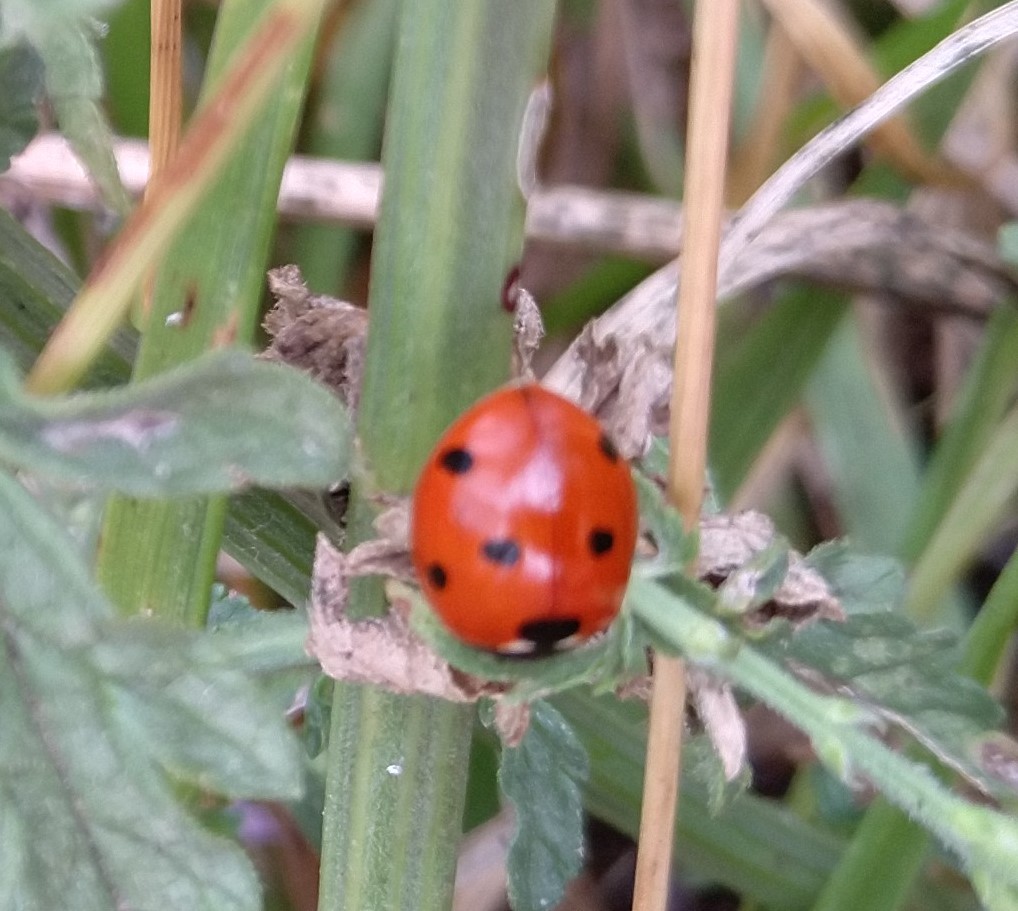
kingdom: Animalia
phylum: Arthropoda
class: Insecta
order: Coleoptera
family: Coccinellidae
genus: Coccinella
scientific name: Coccinella septempunctata
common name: Sevenspotted lady beetle
